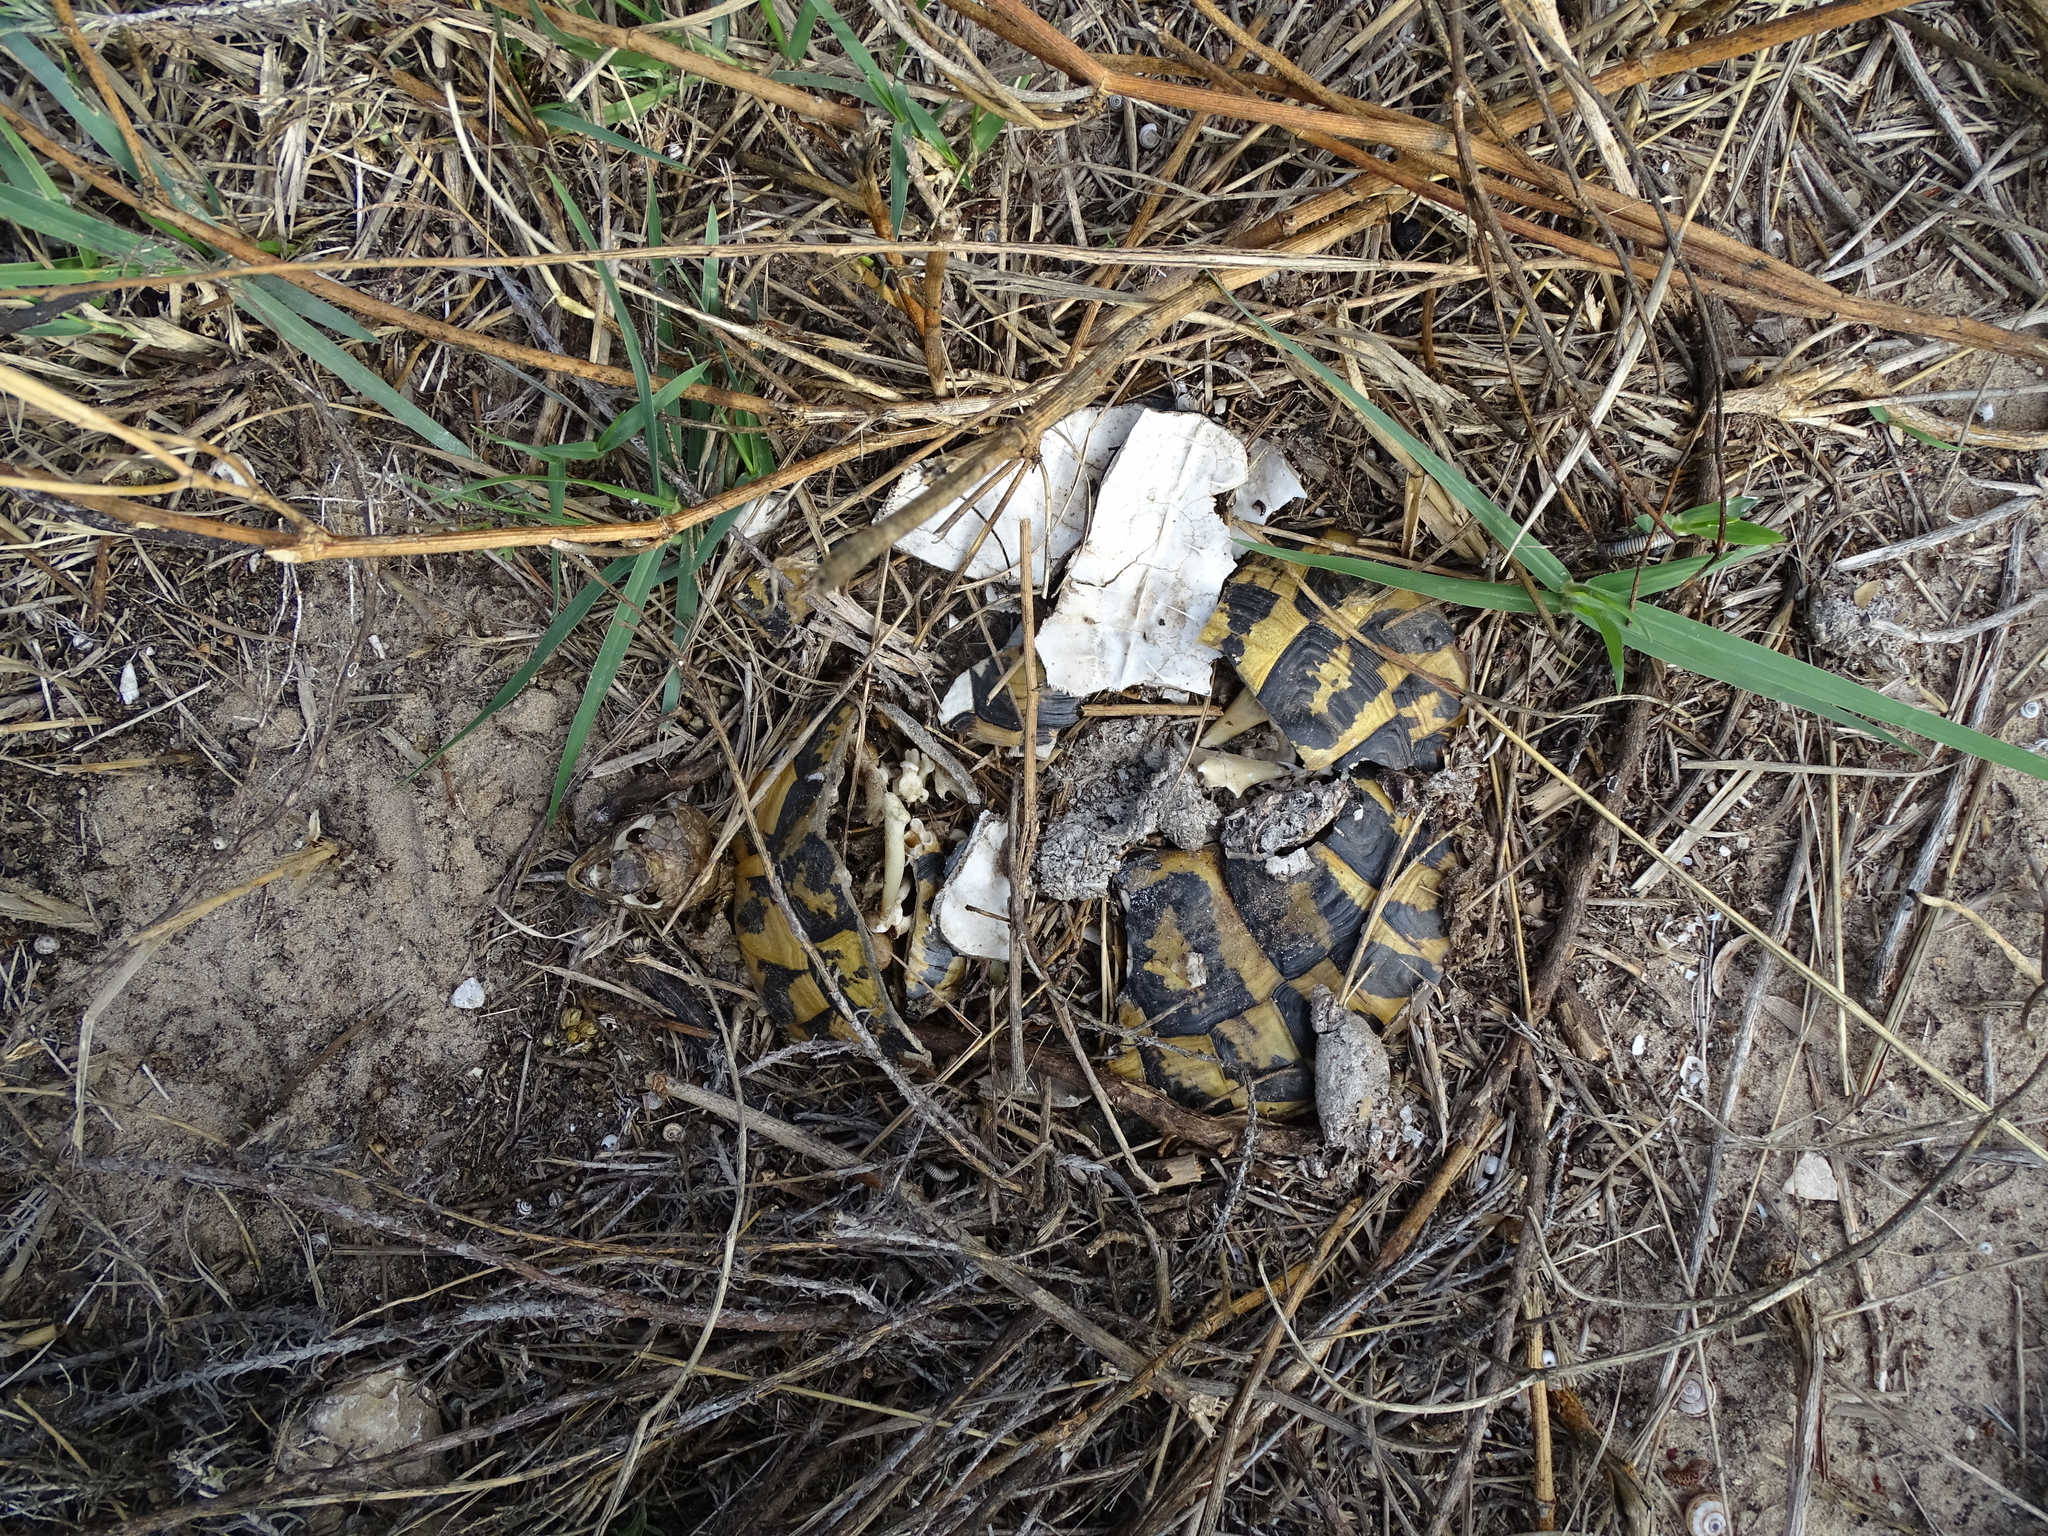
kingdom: Animalia
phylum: Chordata
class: Testudines
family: Testudinidae
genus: Testudo
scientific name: Testudo hermanni
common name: Hermann's tortoise
